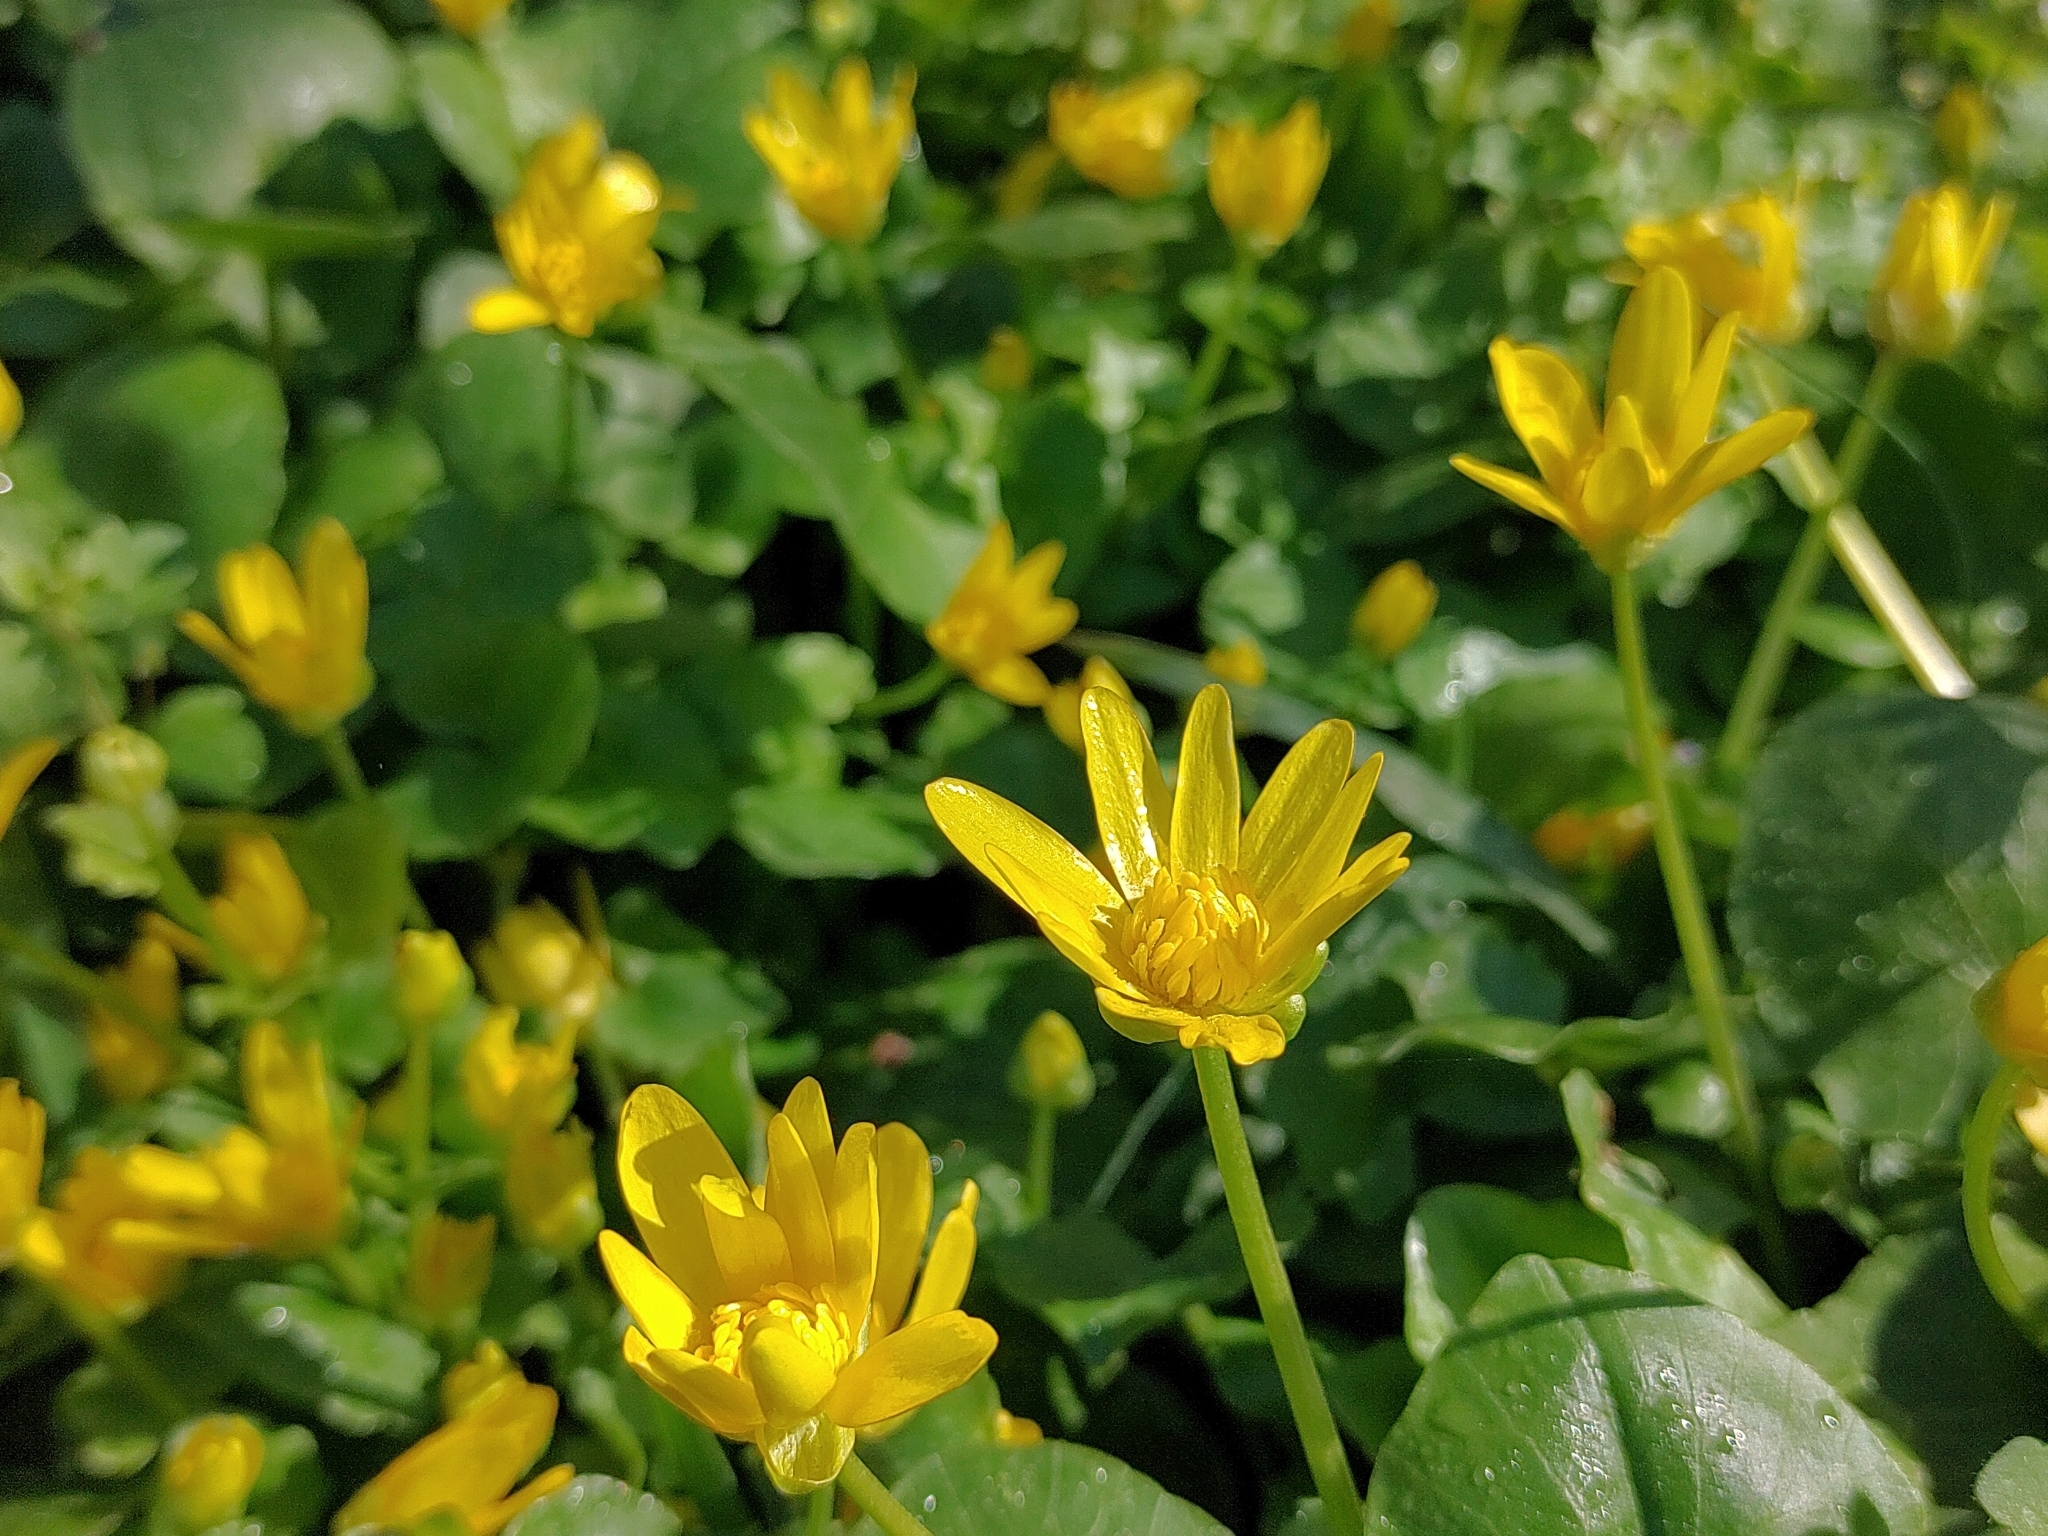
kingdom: Plantae
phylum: Tracheophyta
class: Magnoliopsida
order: Ranunculales
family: Ranunculaceae
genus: Ficaria
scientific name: Ficaria verna
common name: Lesser celandine
